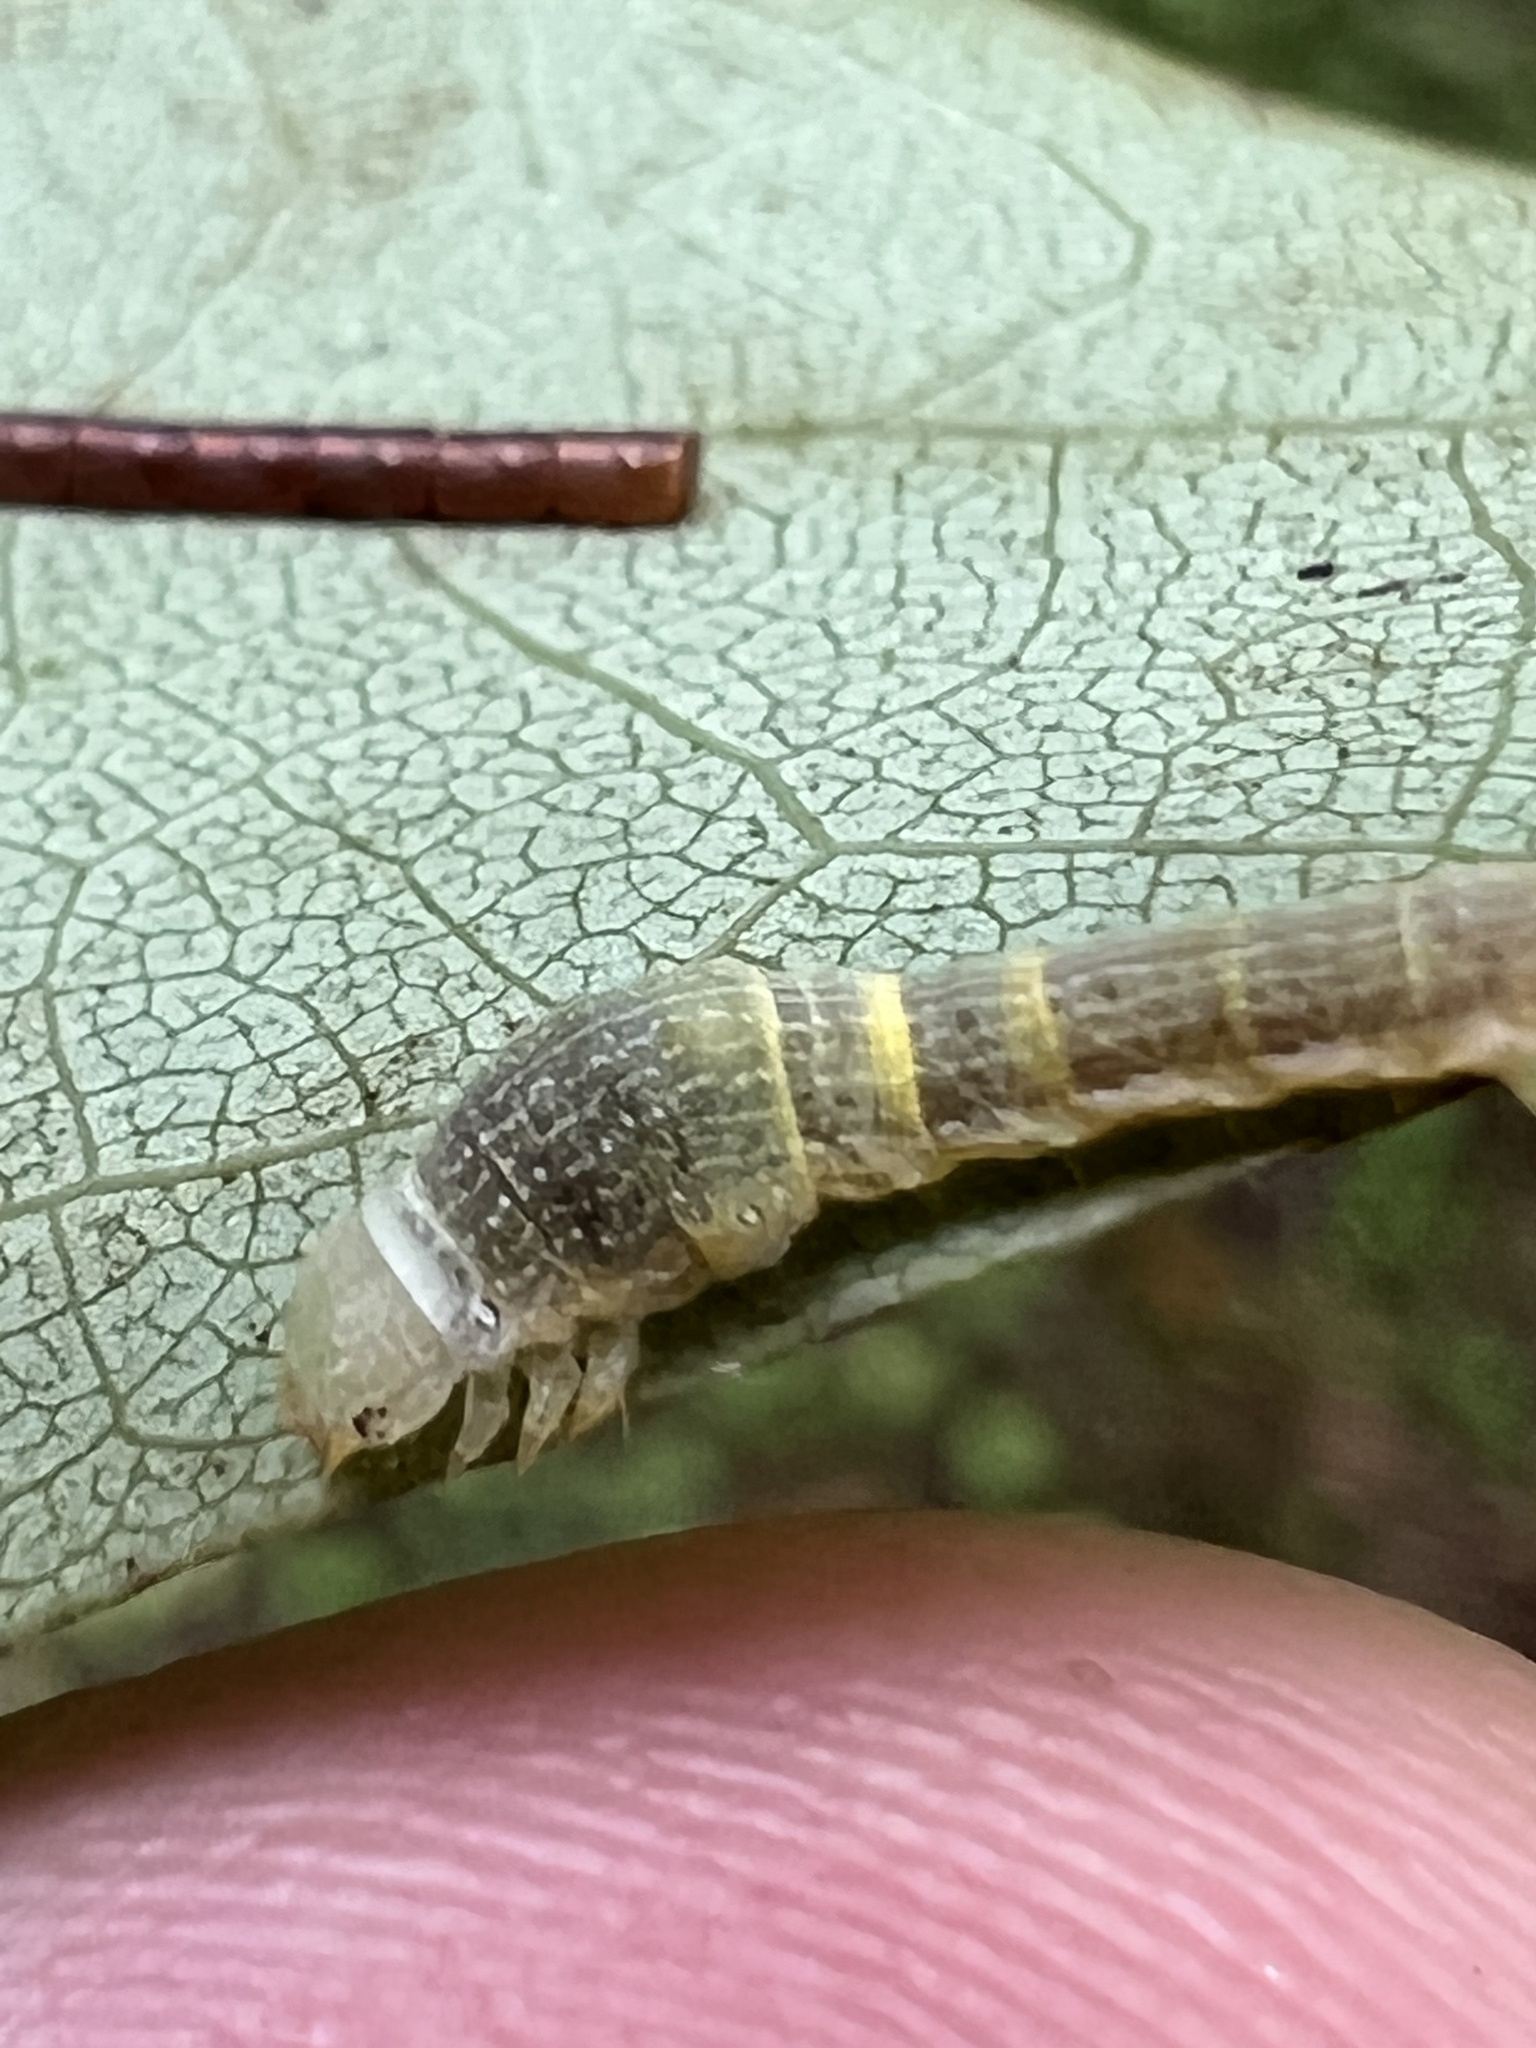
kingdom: Animalia
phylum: Arthropoda
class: Insecta
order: Lepidoptera
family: Geometridae
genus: Epimecis
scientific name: Epimecis hortaria
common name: Tulip-tree beauty
